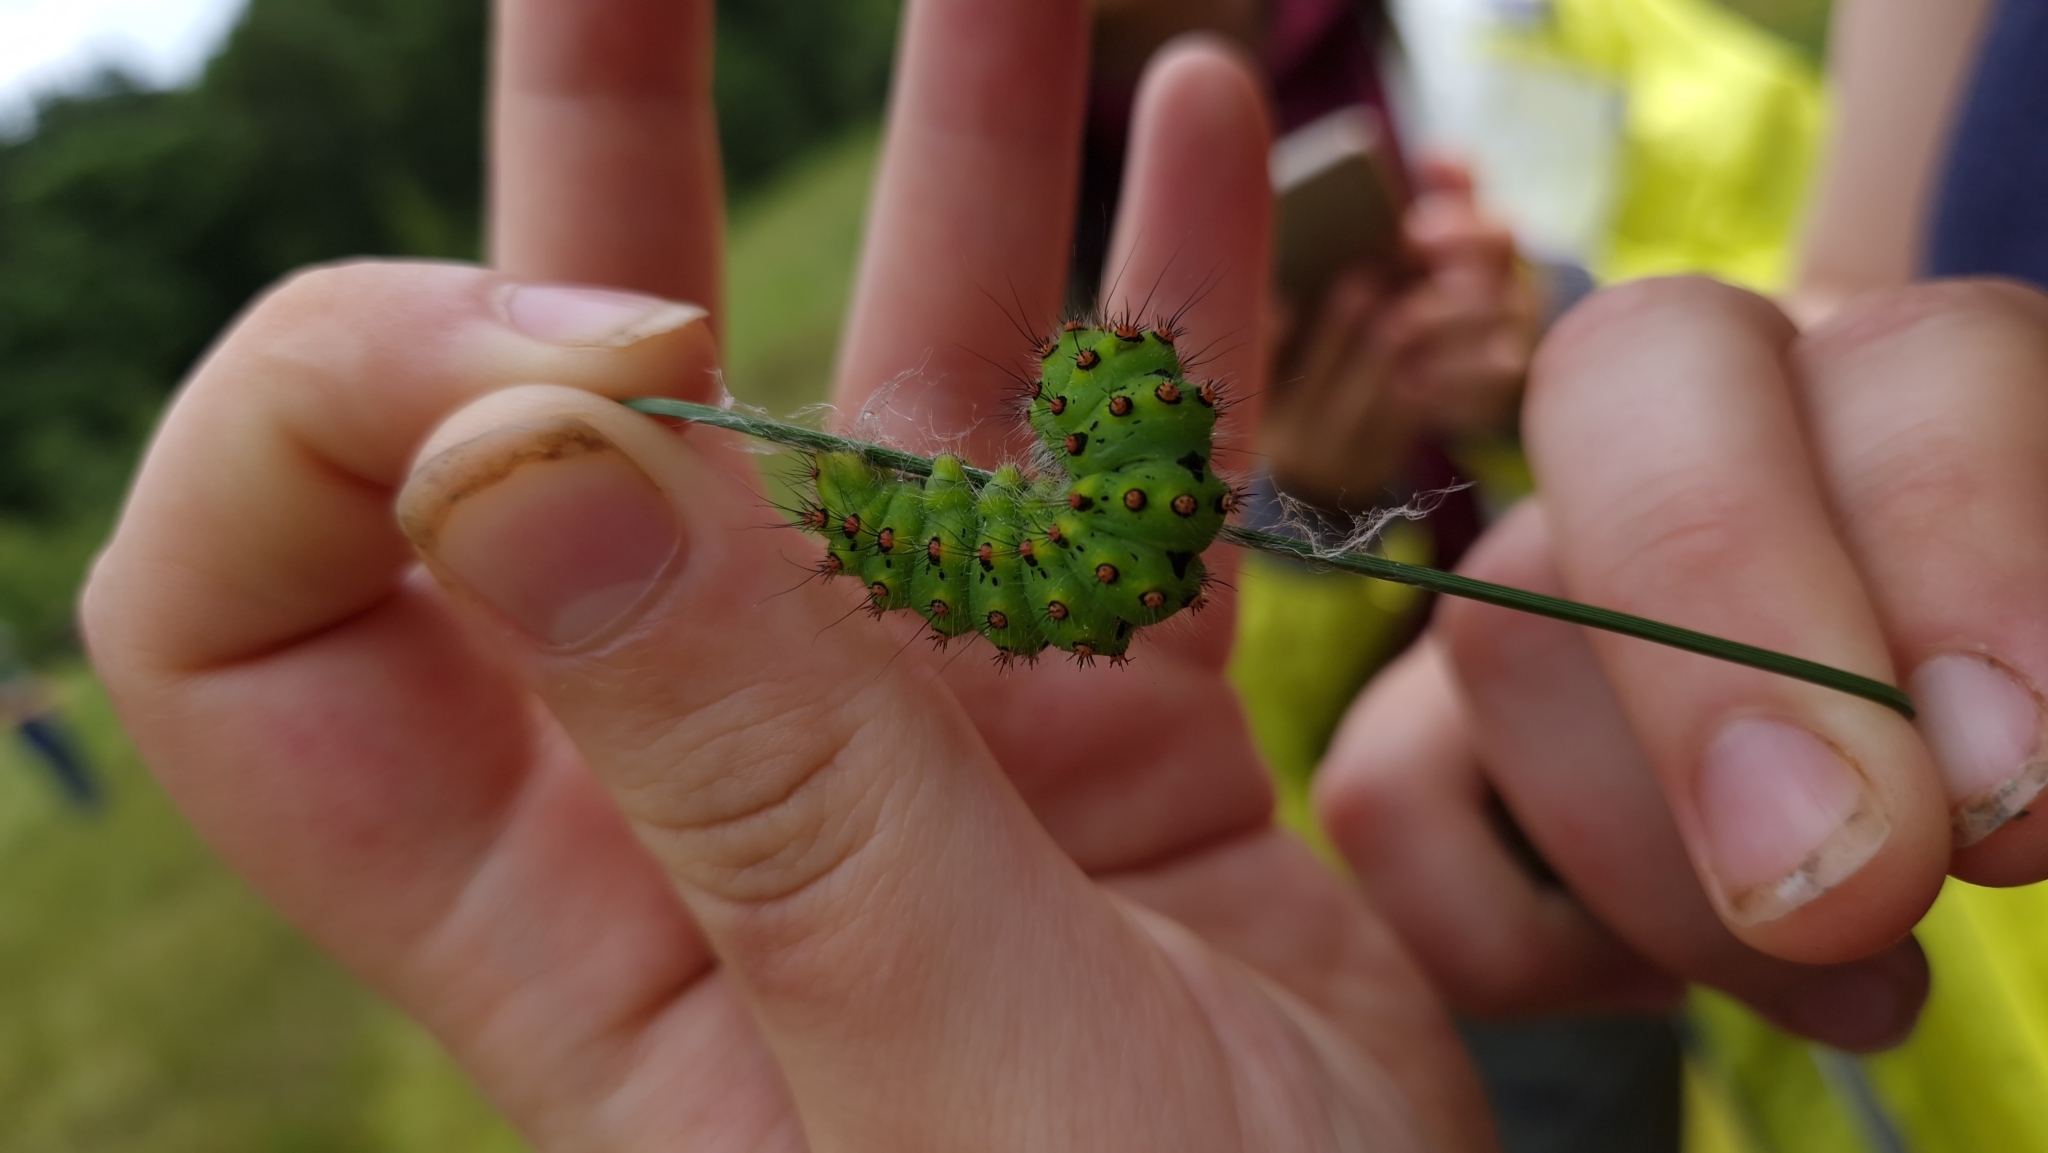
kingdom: Animalia
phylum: Arthropoda
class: Insecta
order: Lepidoptera
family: Saturniidae
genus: Saturnia
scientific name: Saturnia pavonia
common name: Emperor moth
